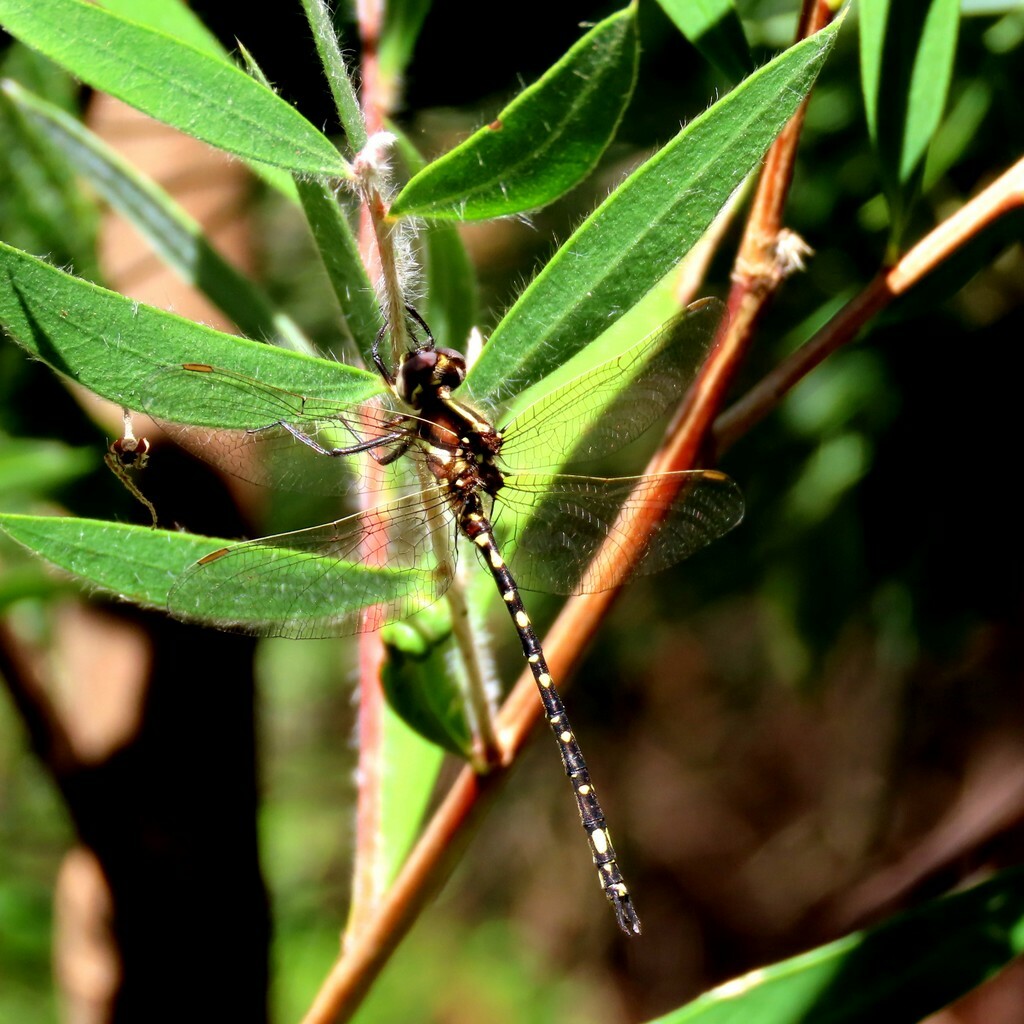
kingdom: Animalia
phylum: Arthropoda
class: Insecta
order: Odonata
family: Synthemistidae
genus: Synthemis
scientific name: Synthemis eustalacta
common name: Swamp tigertail
